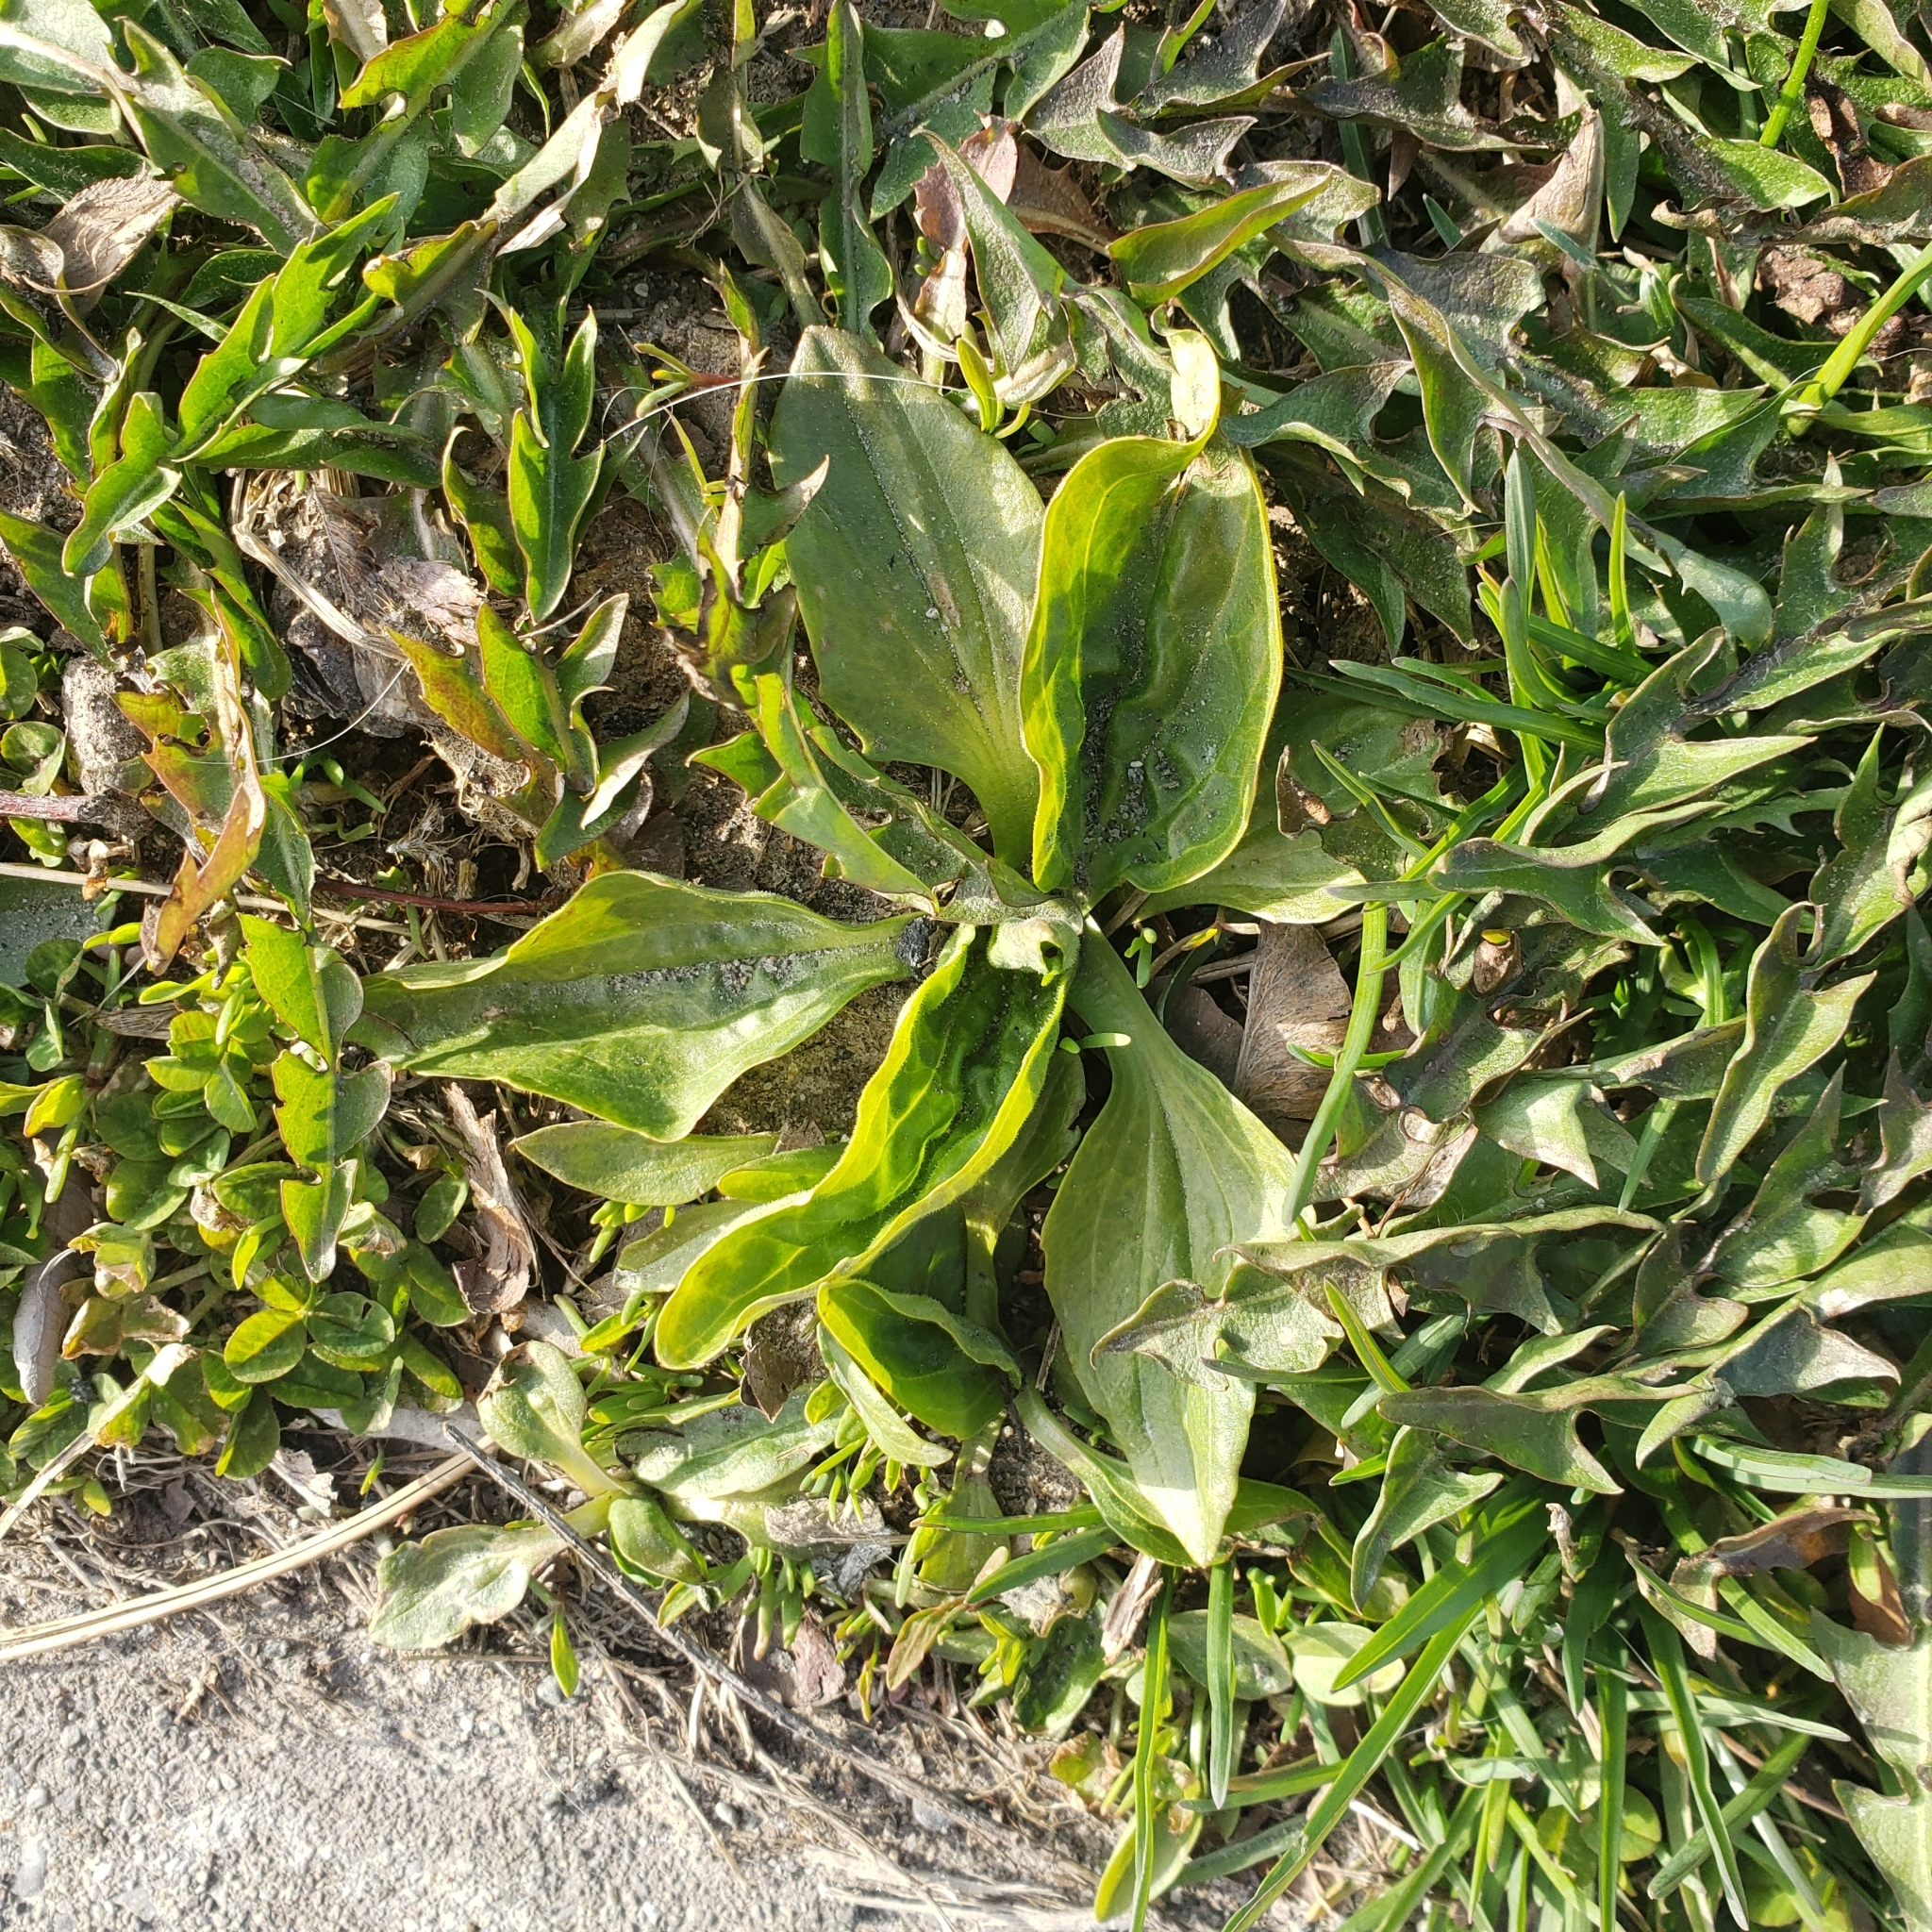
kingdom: Plantae
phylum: Tracheophyta
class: Magnoliopsida
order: Lamiales
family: Plantaginaceae
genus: Plantago
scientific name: Plantago major
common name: Common plantain
